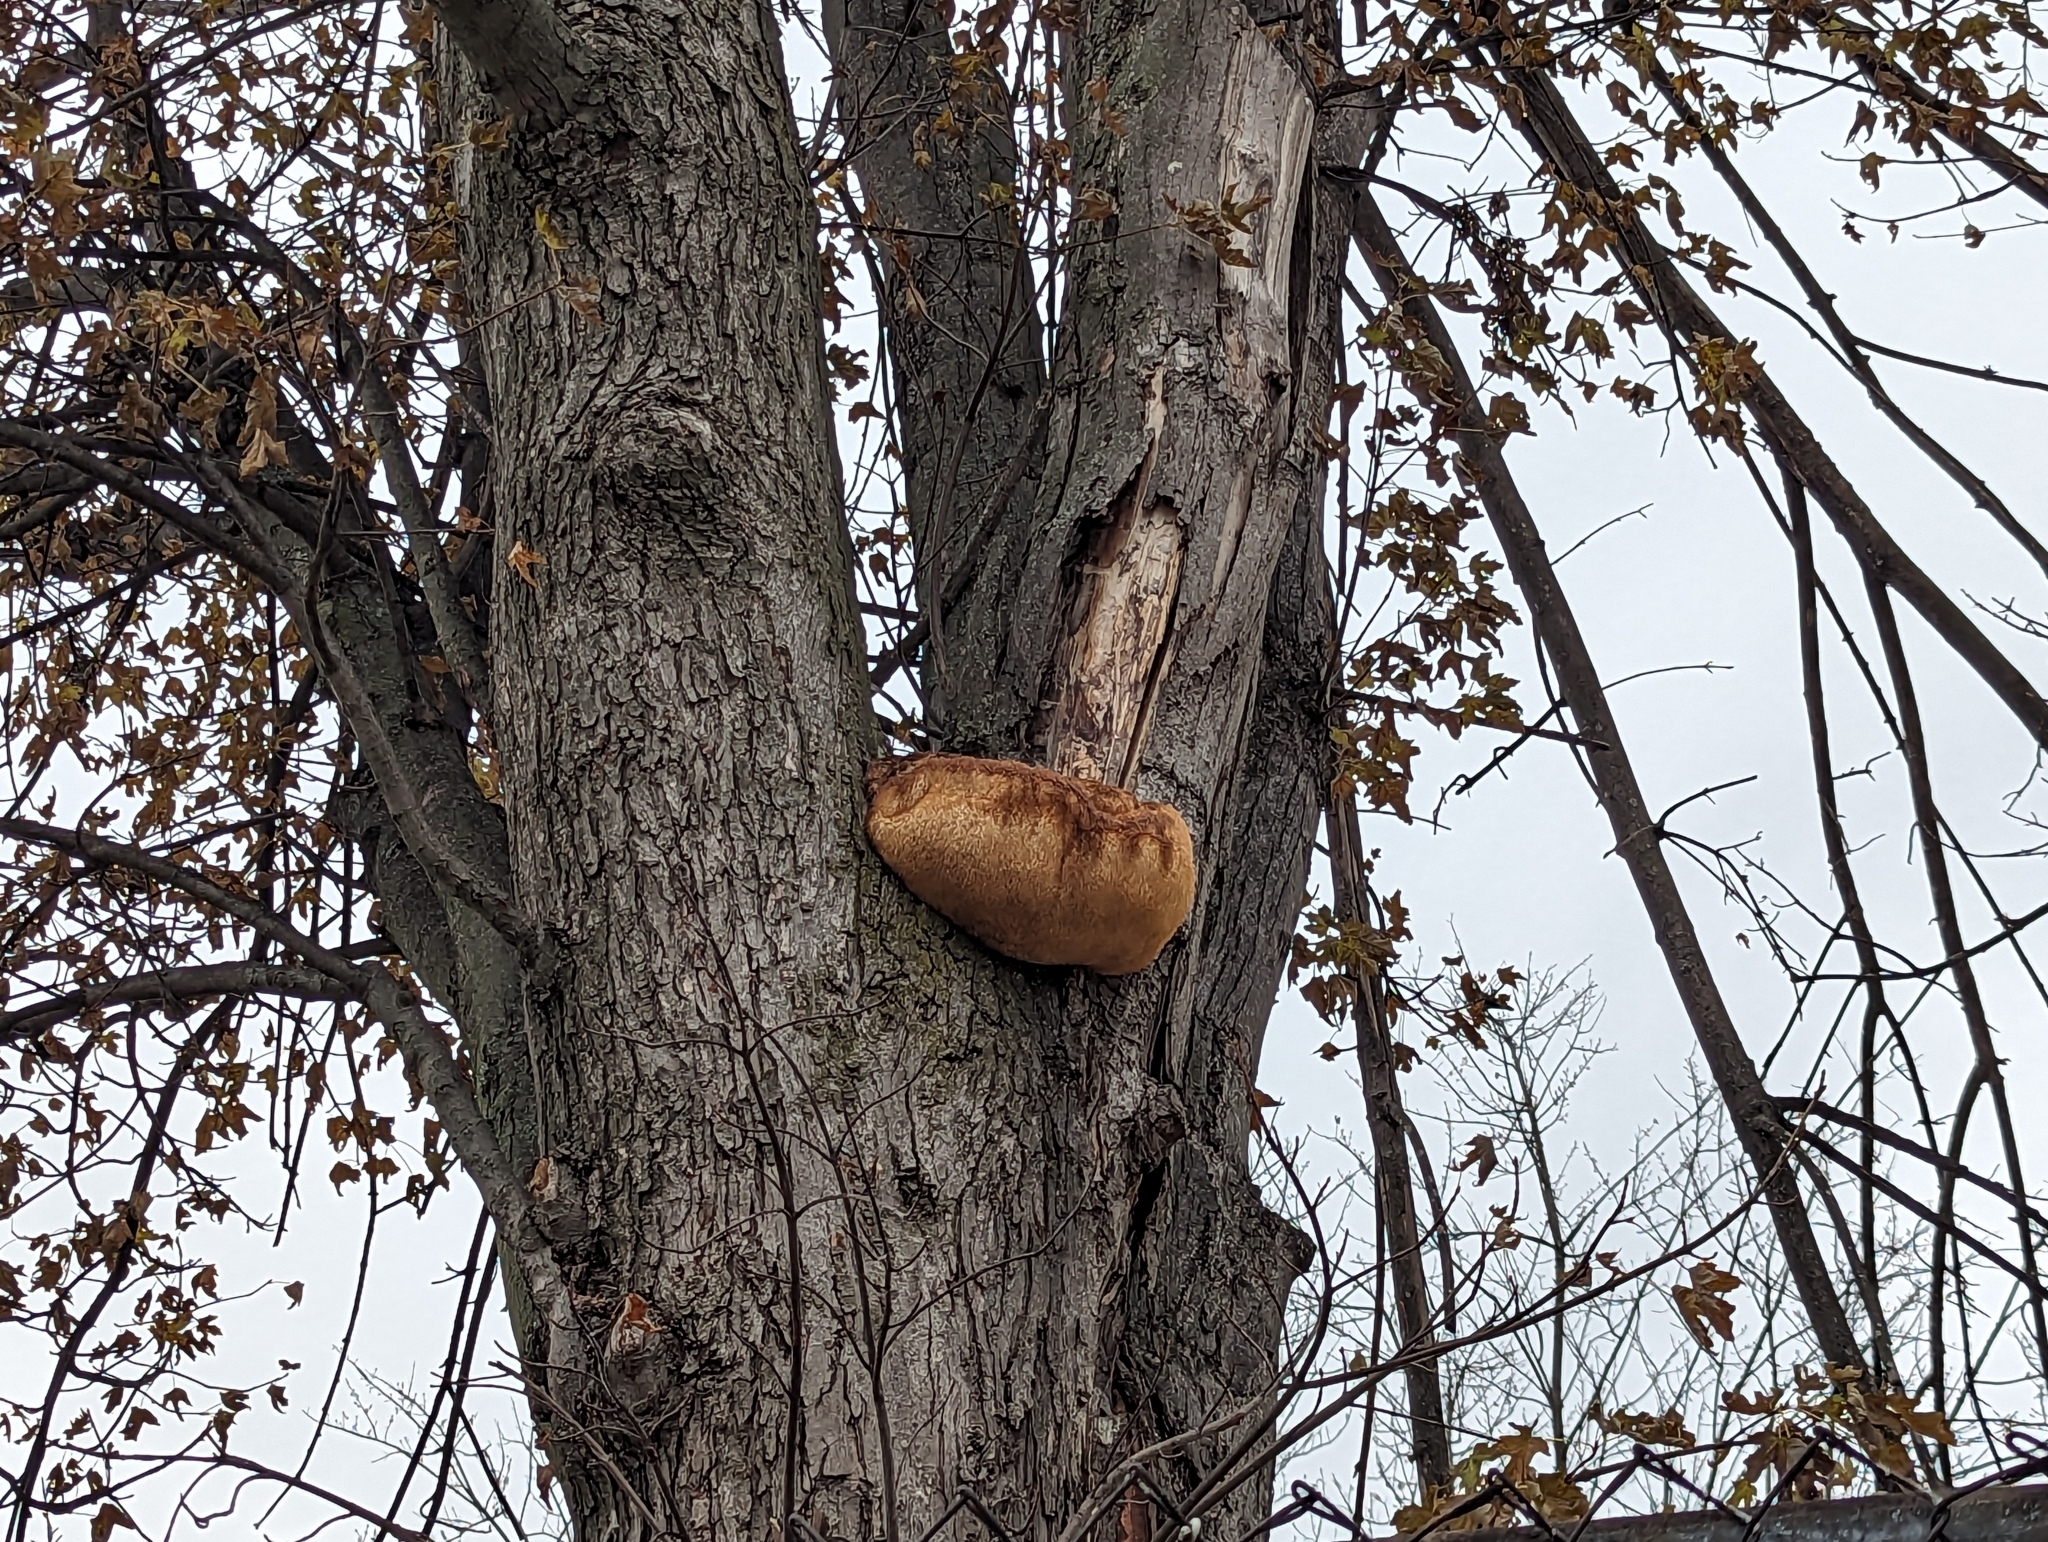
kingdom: Fungi
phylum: Basidiomycota
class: Agaricomycetes
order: Russulales
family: Hericiaceae
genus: Hericium
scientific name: Hericium erinaceus
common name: Bearded tooth
